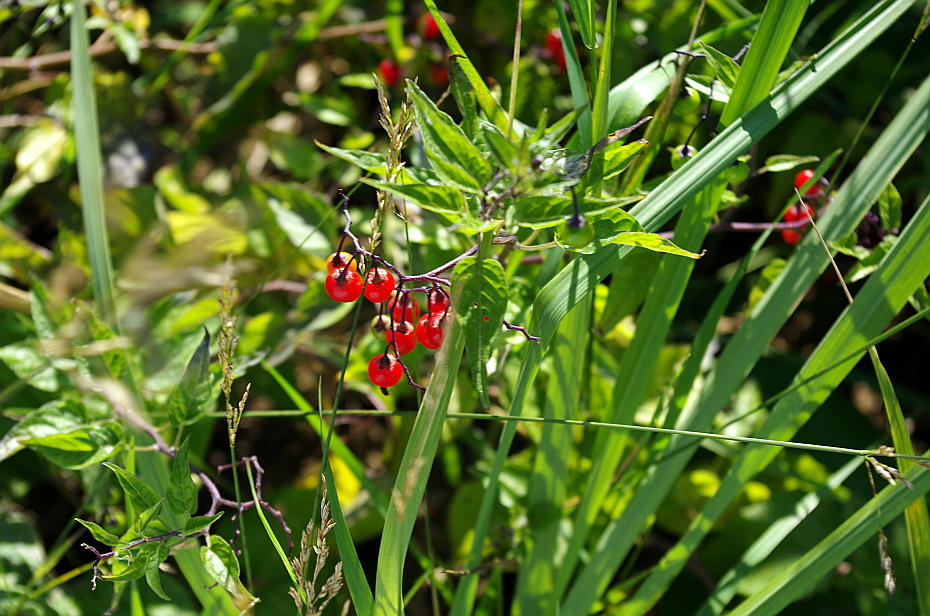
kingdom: Plantae
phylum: Tracheophyta
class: Magnoliopsida
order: Solanales
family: Solanaceae
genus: Solanum
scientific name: Solanum dulcamara
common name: Climbing nightshade
